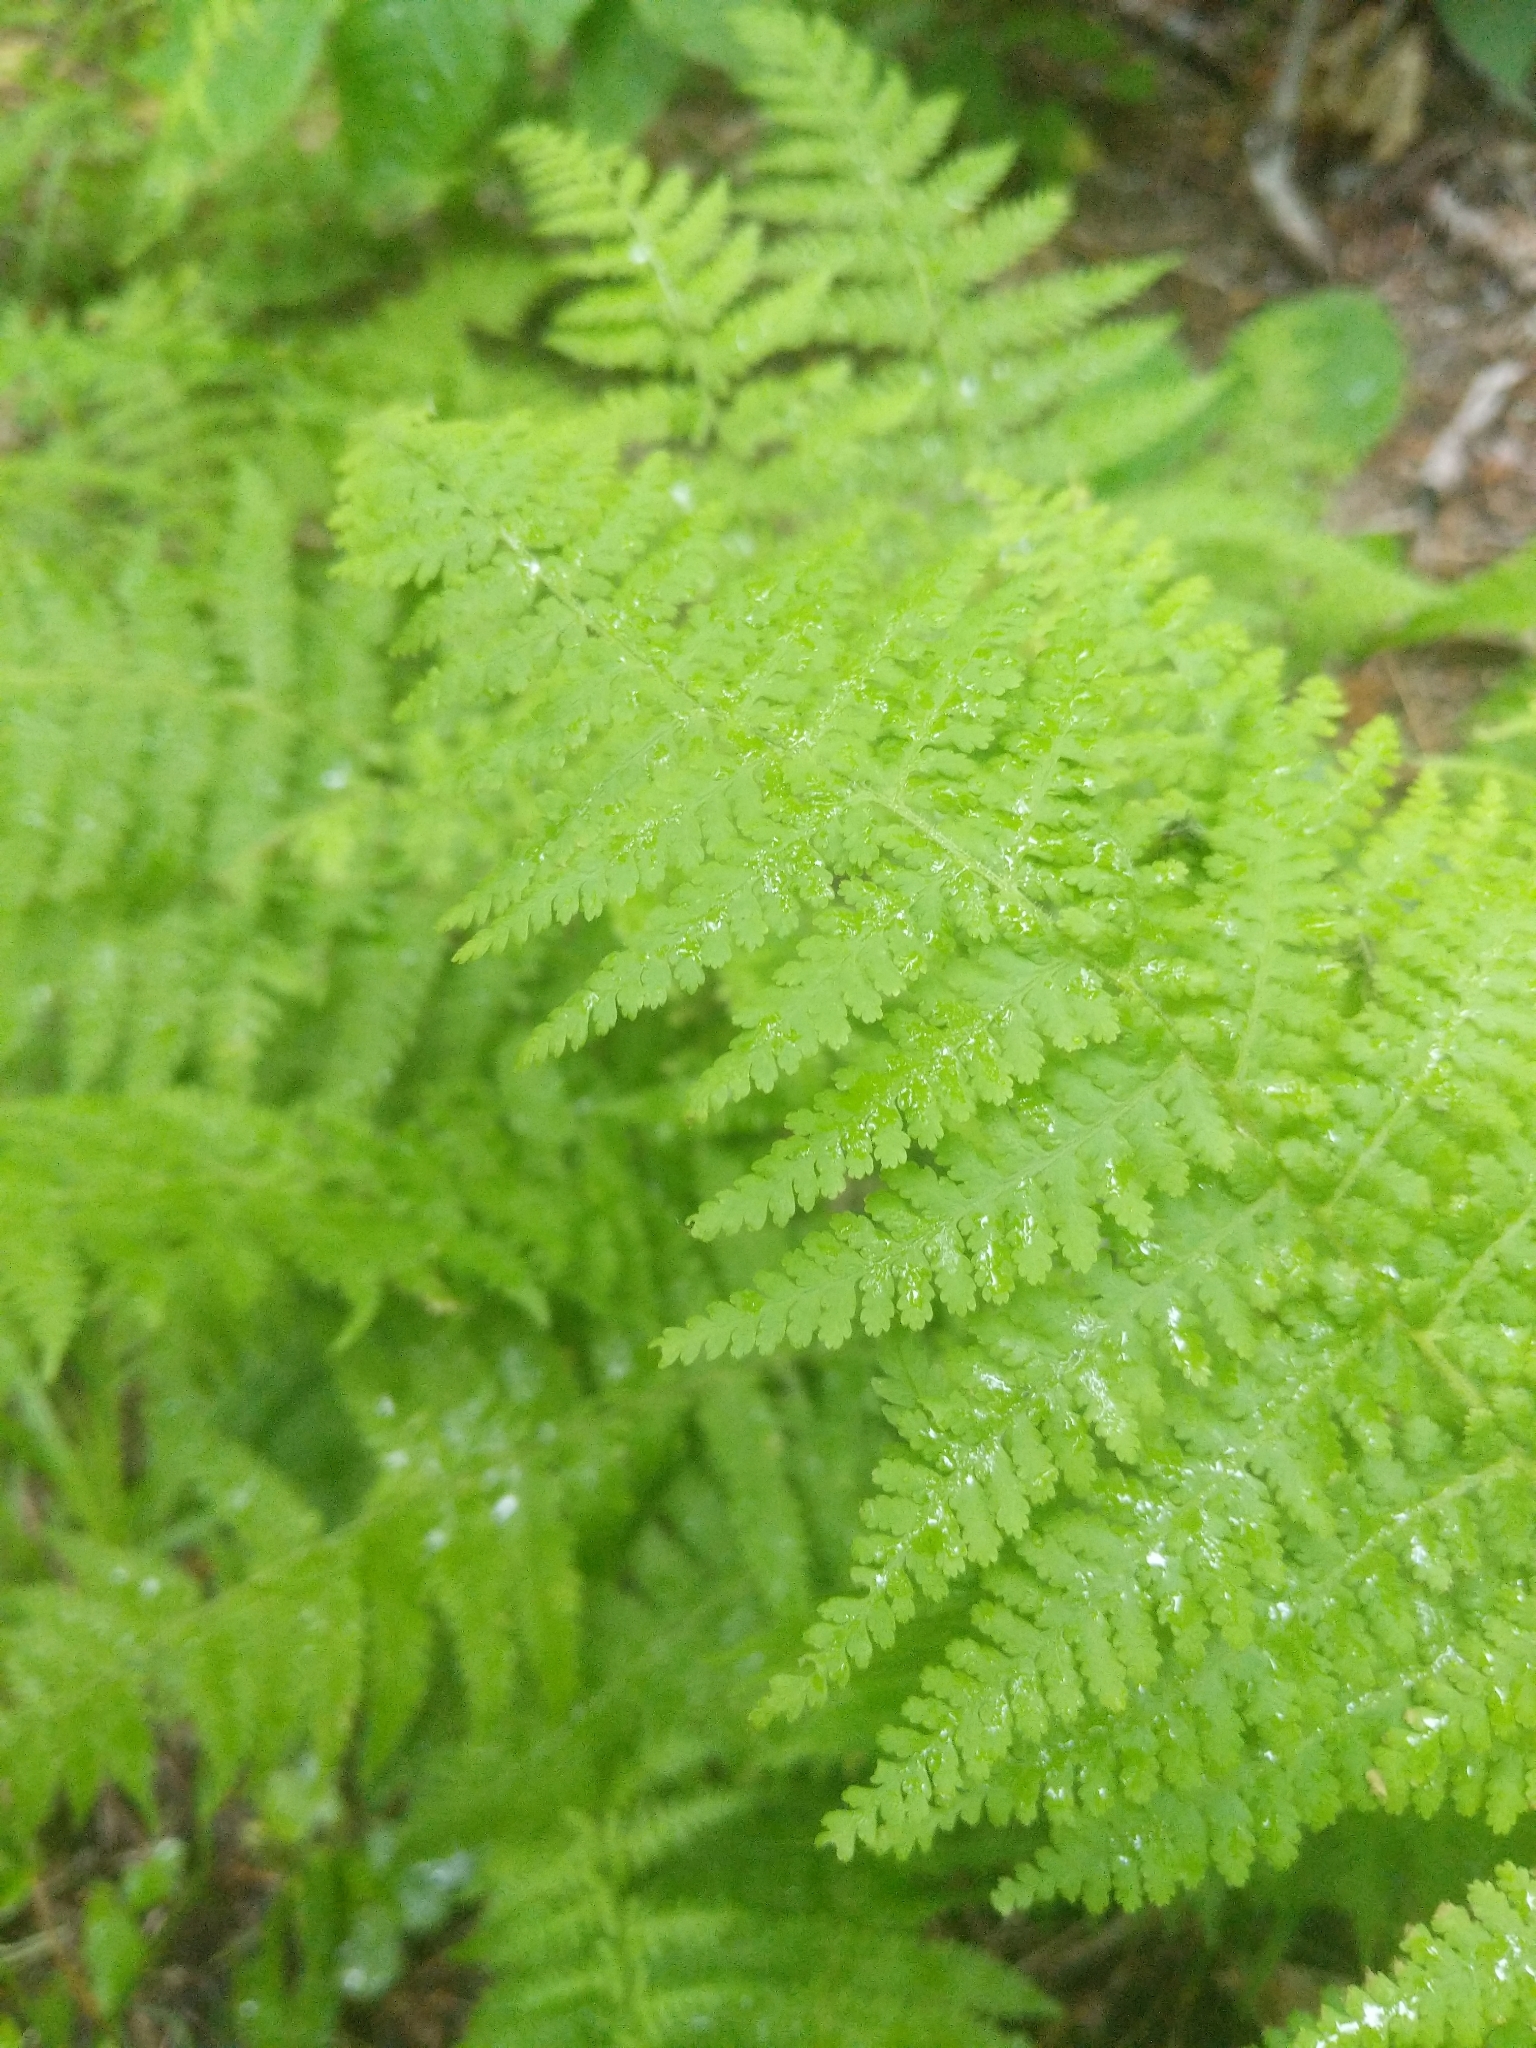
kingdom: Plantae
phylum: Tracheophyta
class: Polypodiopsida
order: Polypodiales
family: Dennstaedtiaceae
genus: Sitobolium
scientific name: Sitobolium punctilobum
